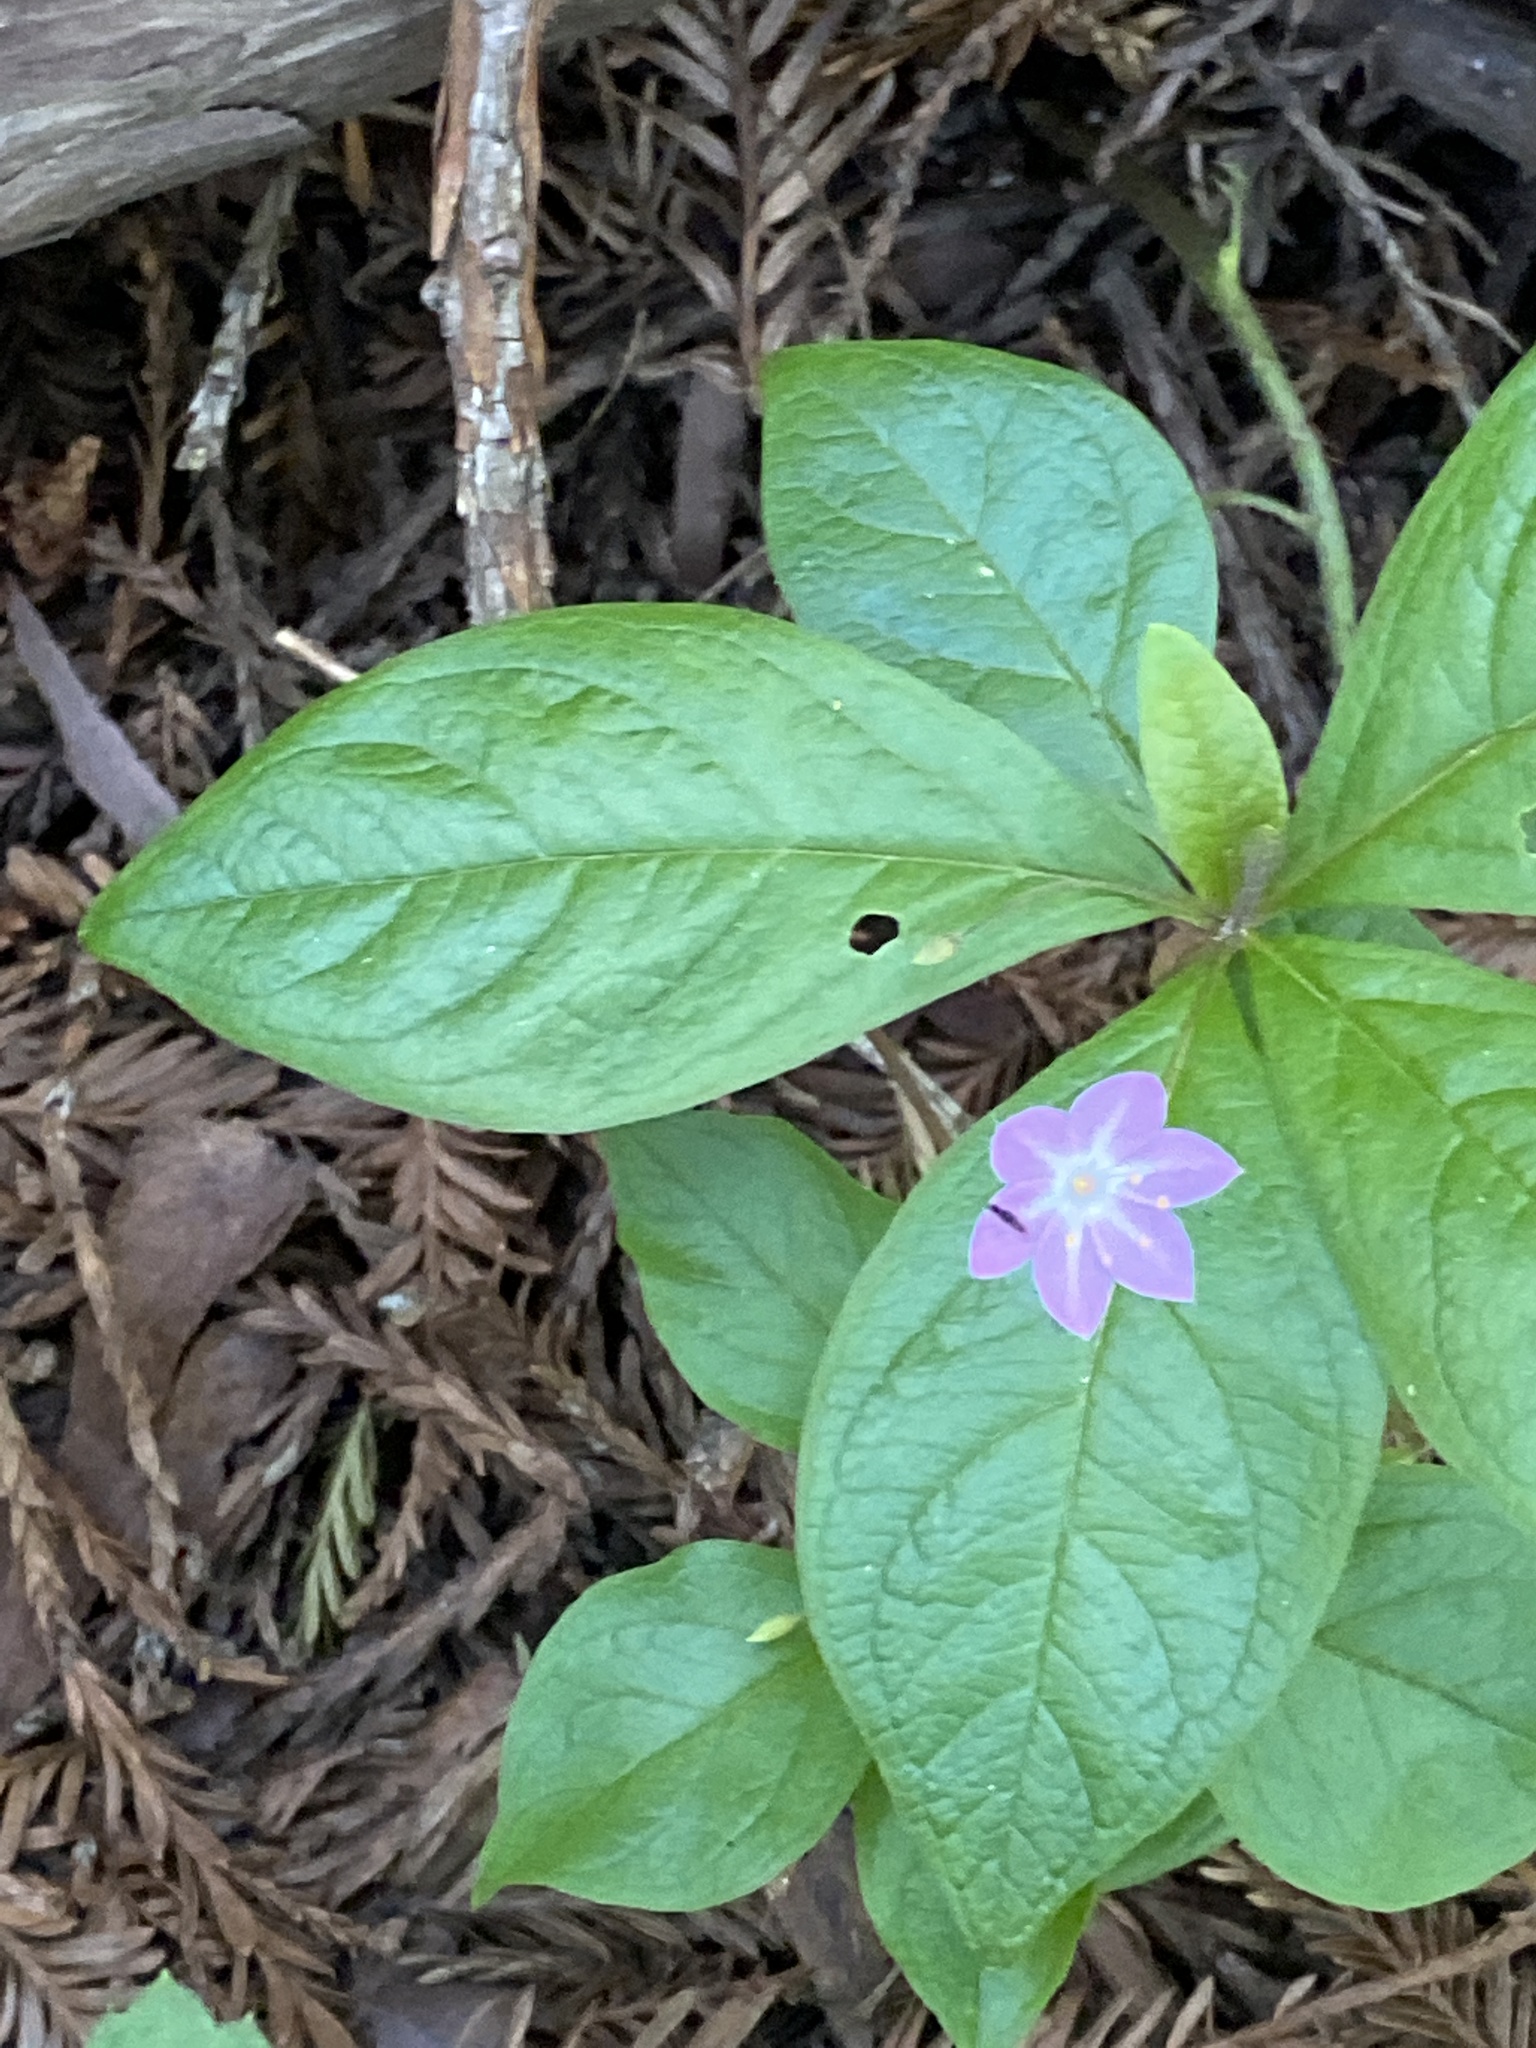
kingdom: Plantae
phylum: Tracheophyta
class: Magnoliopsida
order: Ericales
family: Primulaceae
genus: Lysimachia
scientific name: Lysimachia latifolia
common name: Pacific starflower
